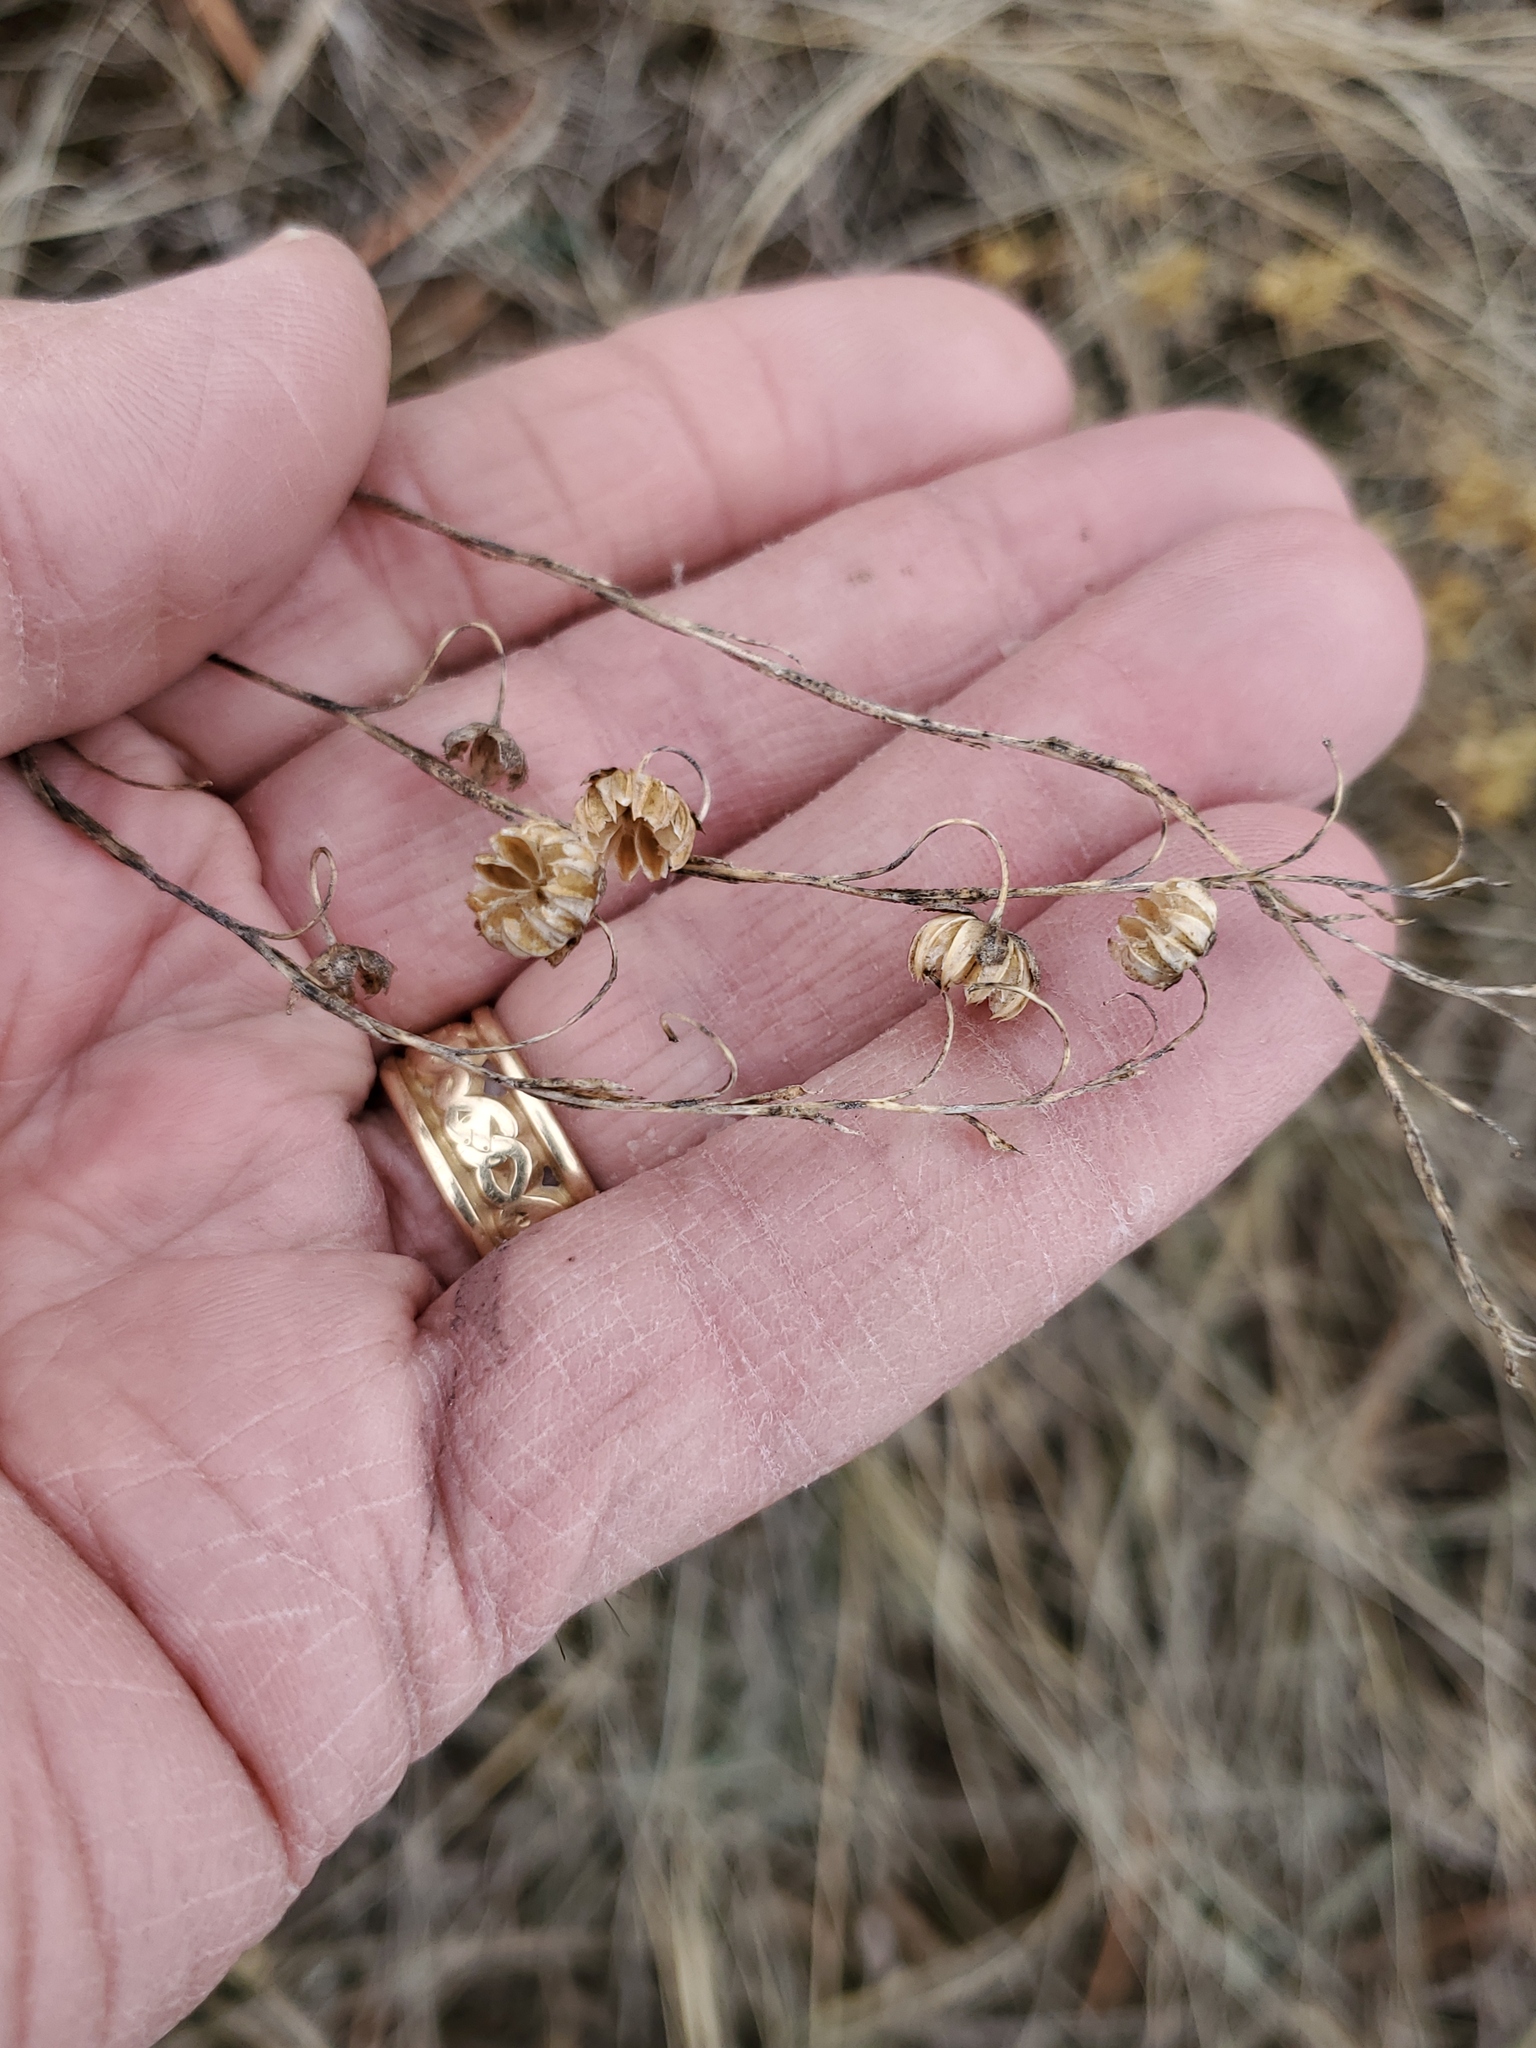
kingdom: Plantae
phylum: Tracheophyta
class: Magnoliopsida
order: Malpighiales
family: Linaceae
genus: Linum
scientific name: Linum lewisii
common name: Prairie flax
